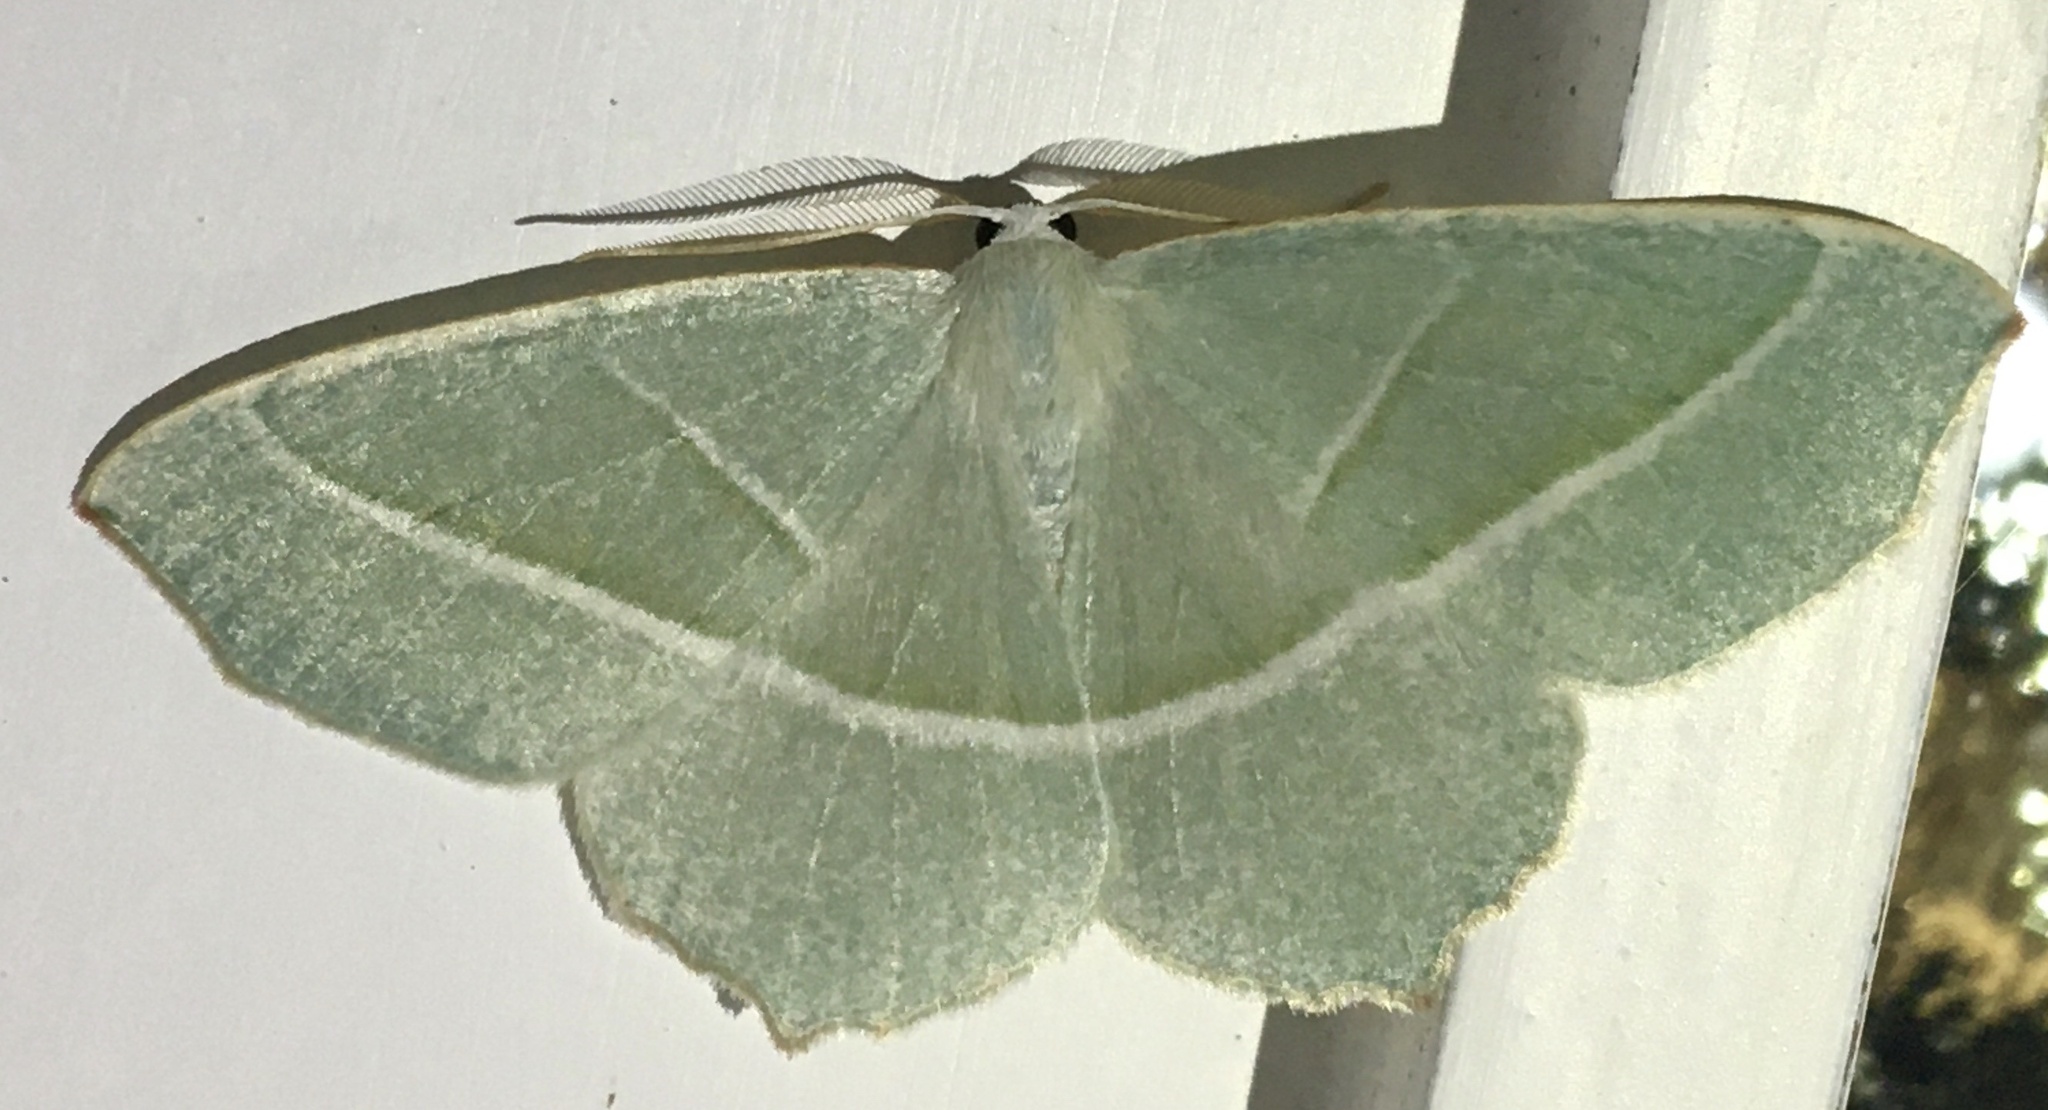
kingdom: Animalia
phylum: Arthropoda
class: Insecta
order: Lepidoptera
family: Geometridae
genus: Campaea
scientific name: Campaea margaritaria
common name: Light emerald
